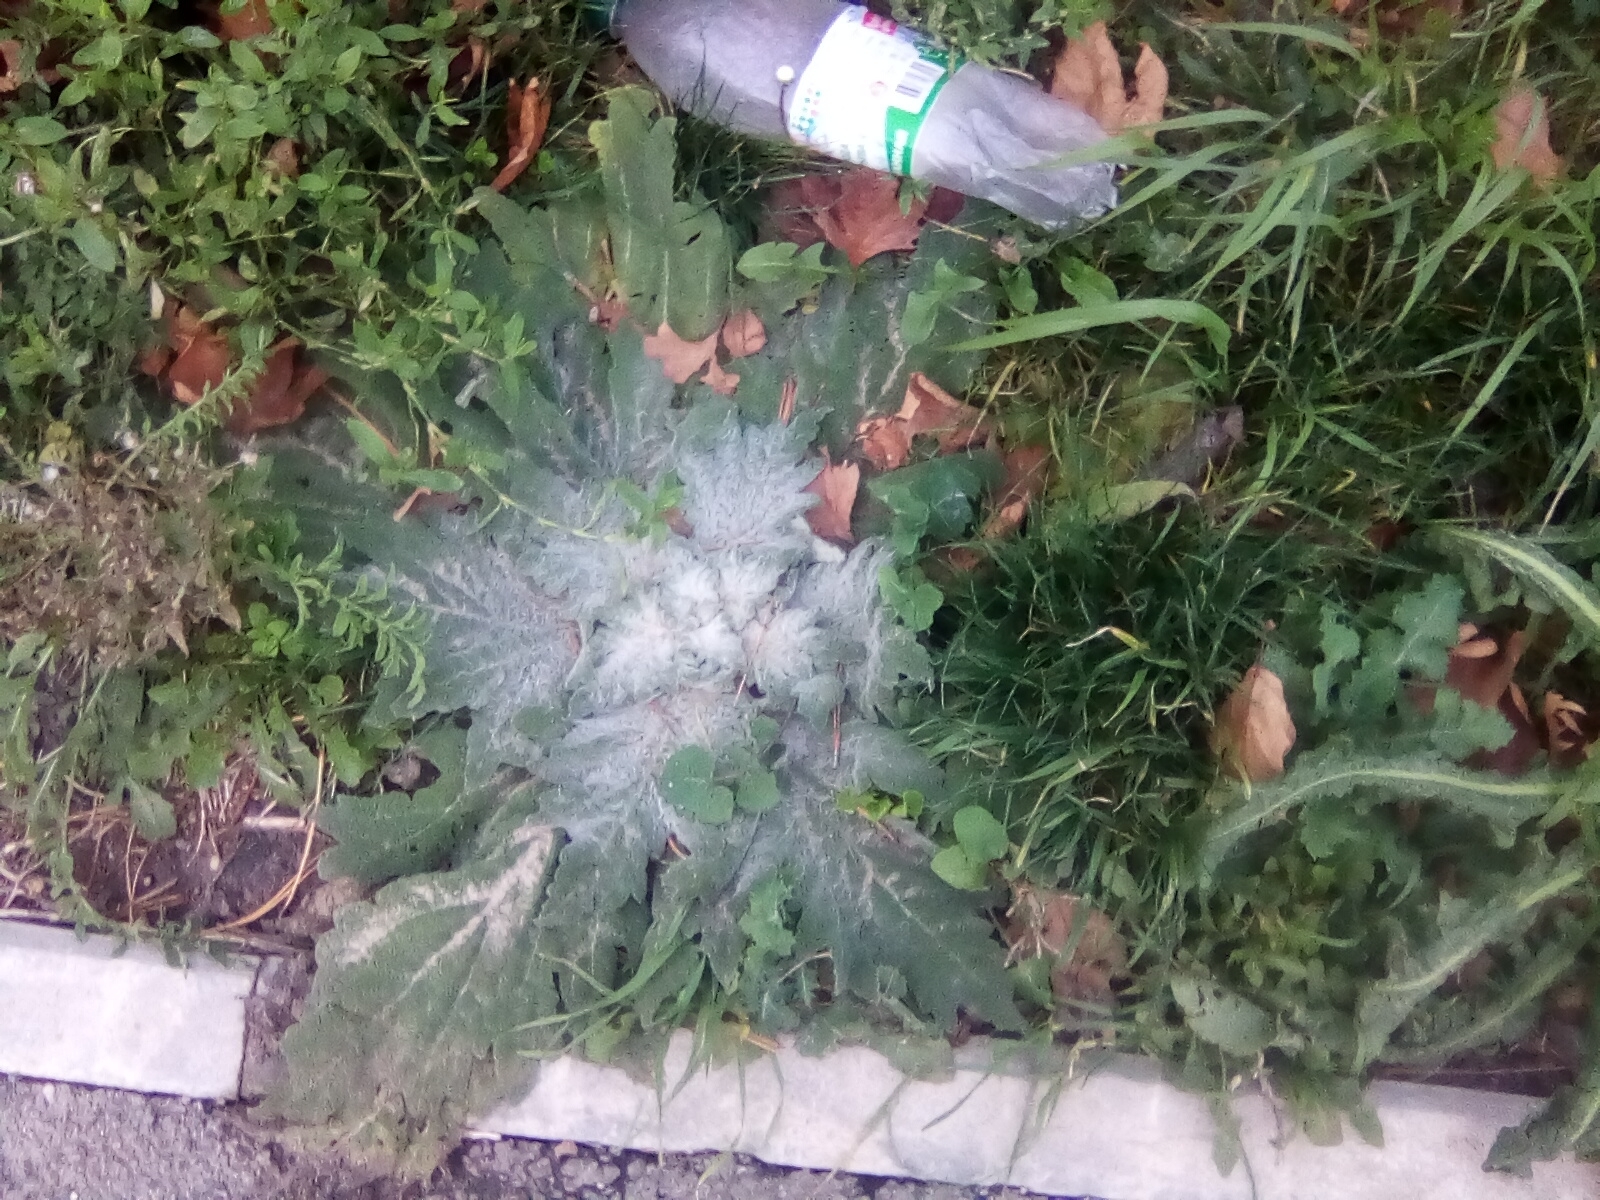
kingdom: Plantae
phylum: Tracheophyta
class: Magnoliopsida
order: Lamiales
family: Lamiaceae
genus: Salvia
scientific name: Salvia aethiopis
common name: Mediterranean sage
